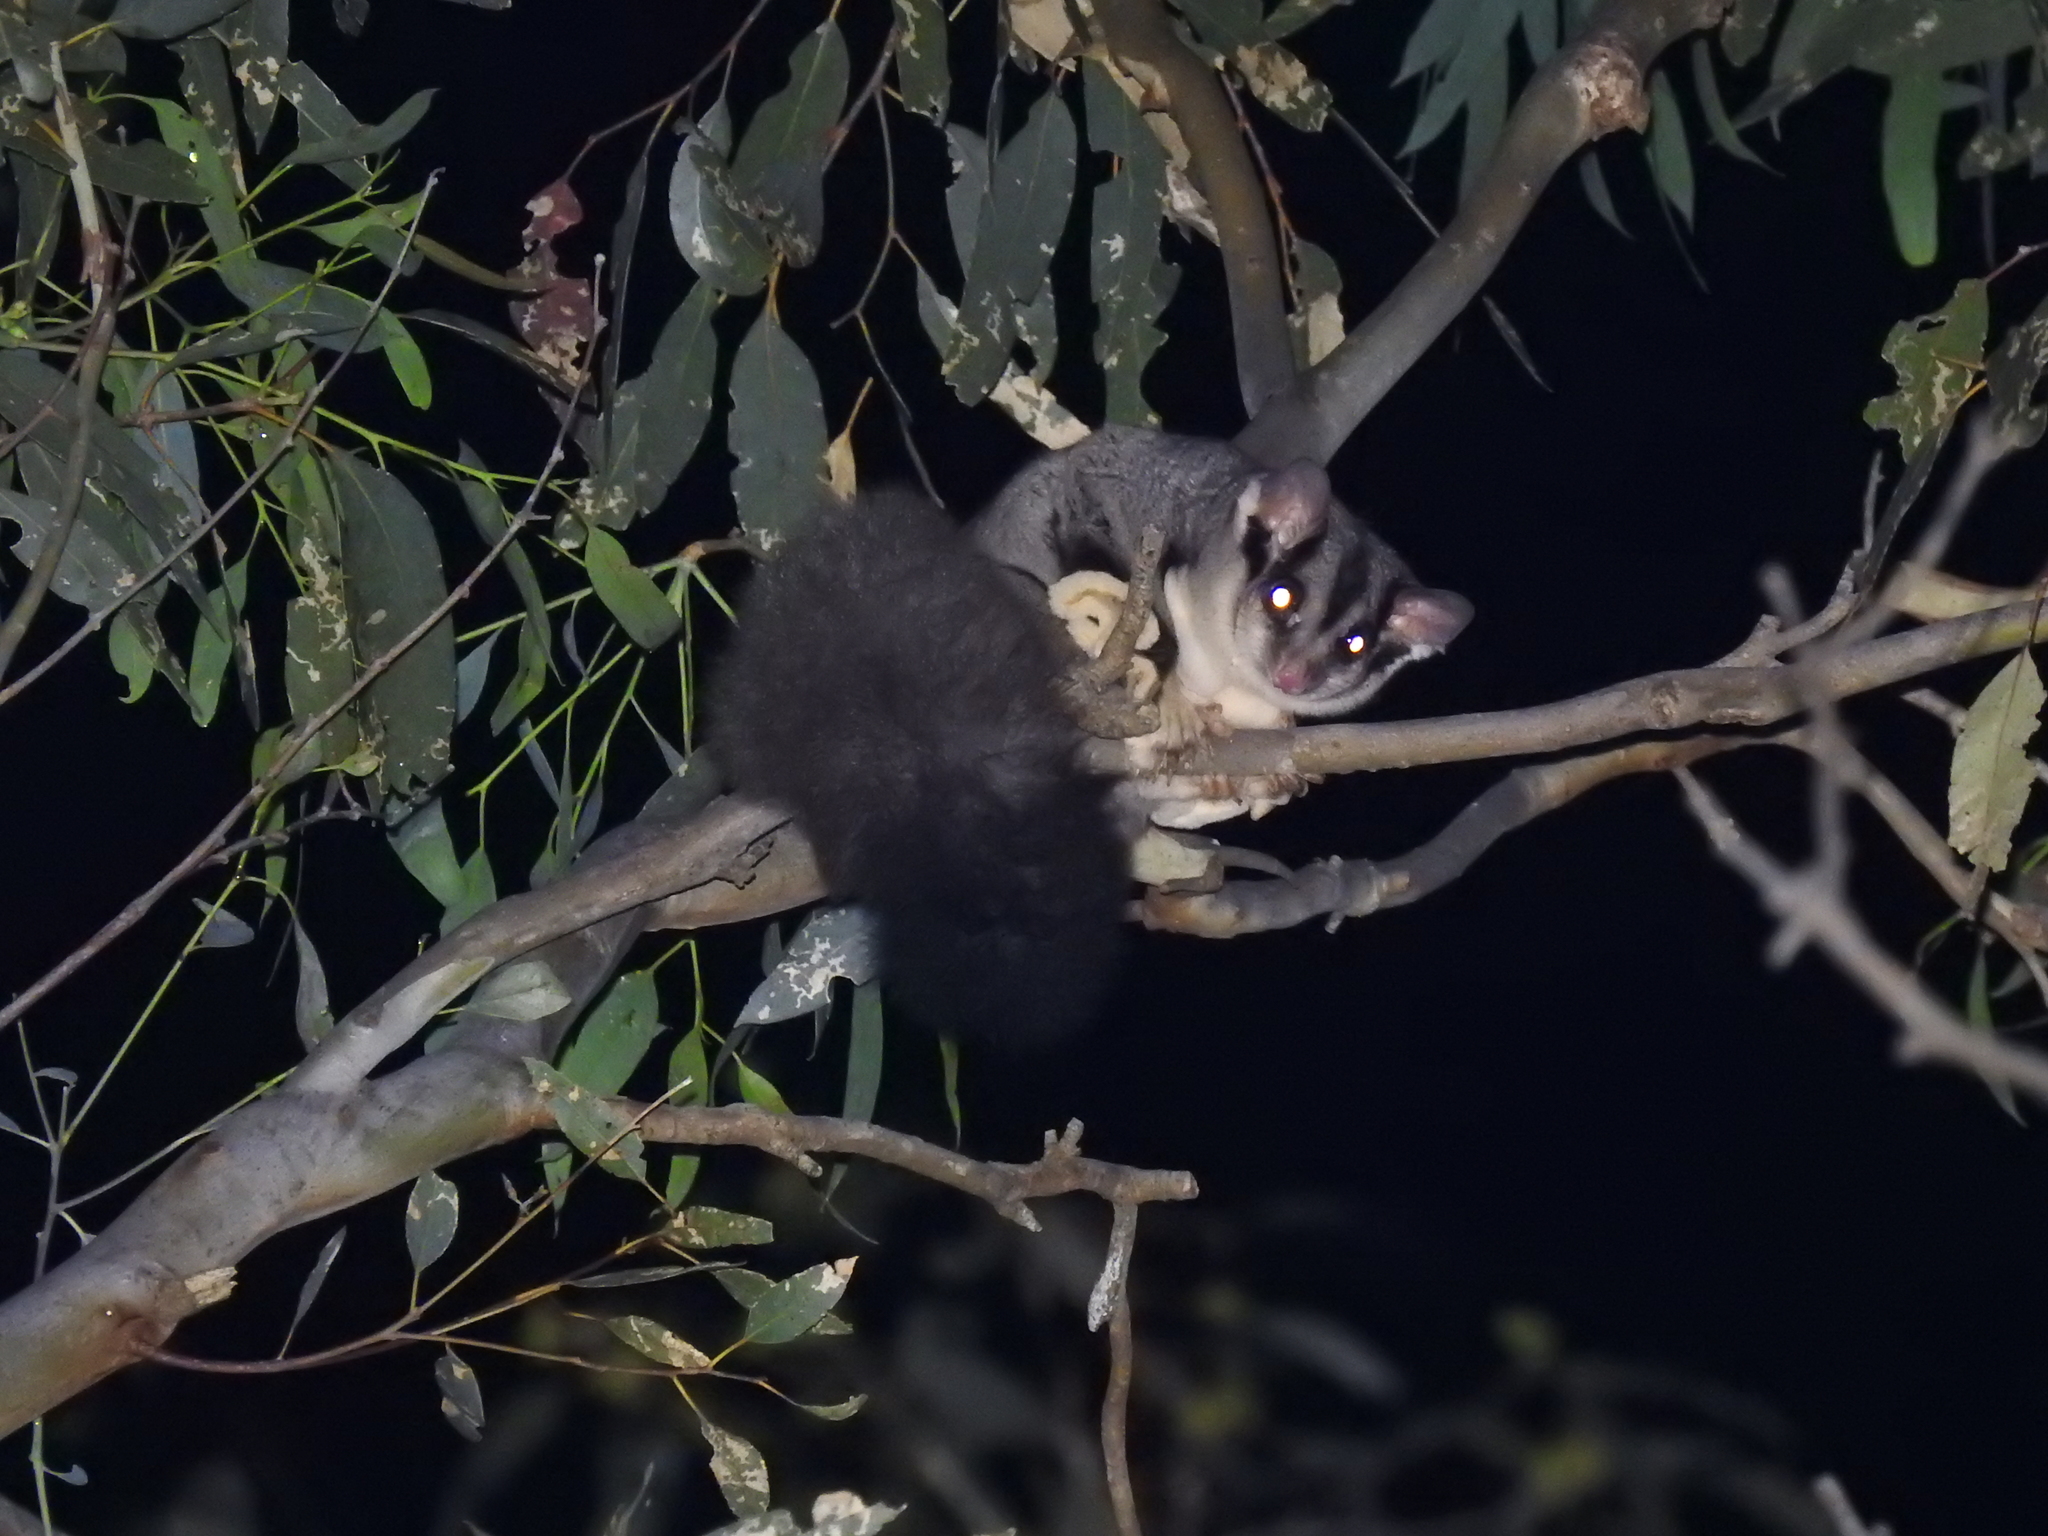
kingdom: Animalia
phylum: Chordata
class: Mammalia
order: Diprotodontia
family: Petauridae
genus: Petaurus
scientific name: Petaurus norfolcensis
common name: Squirrel glider
